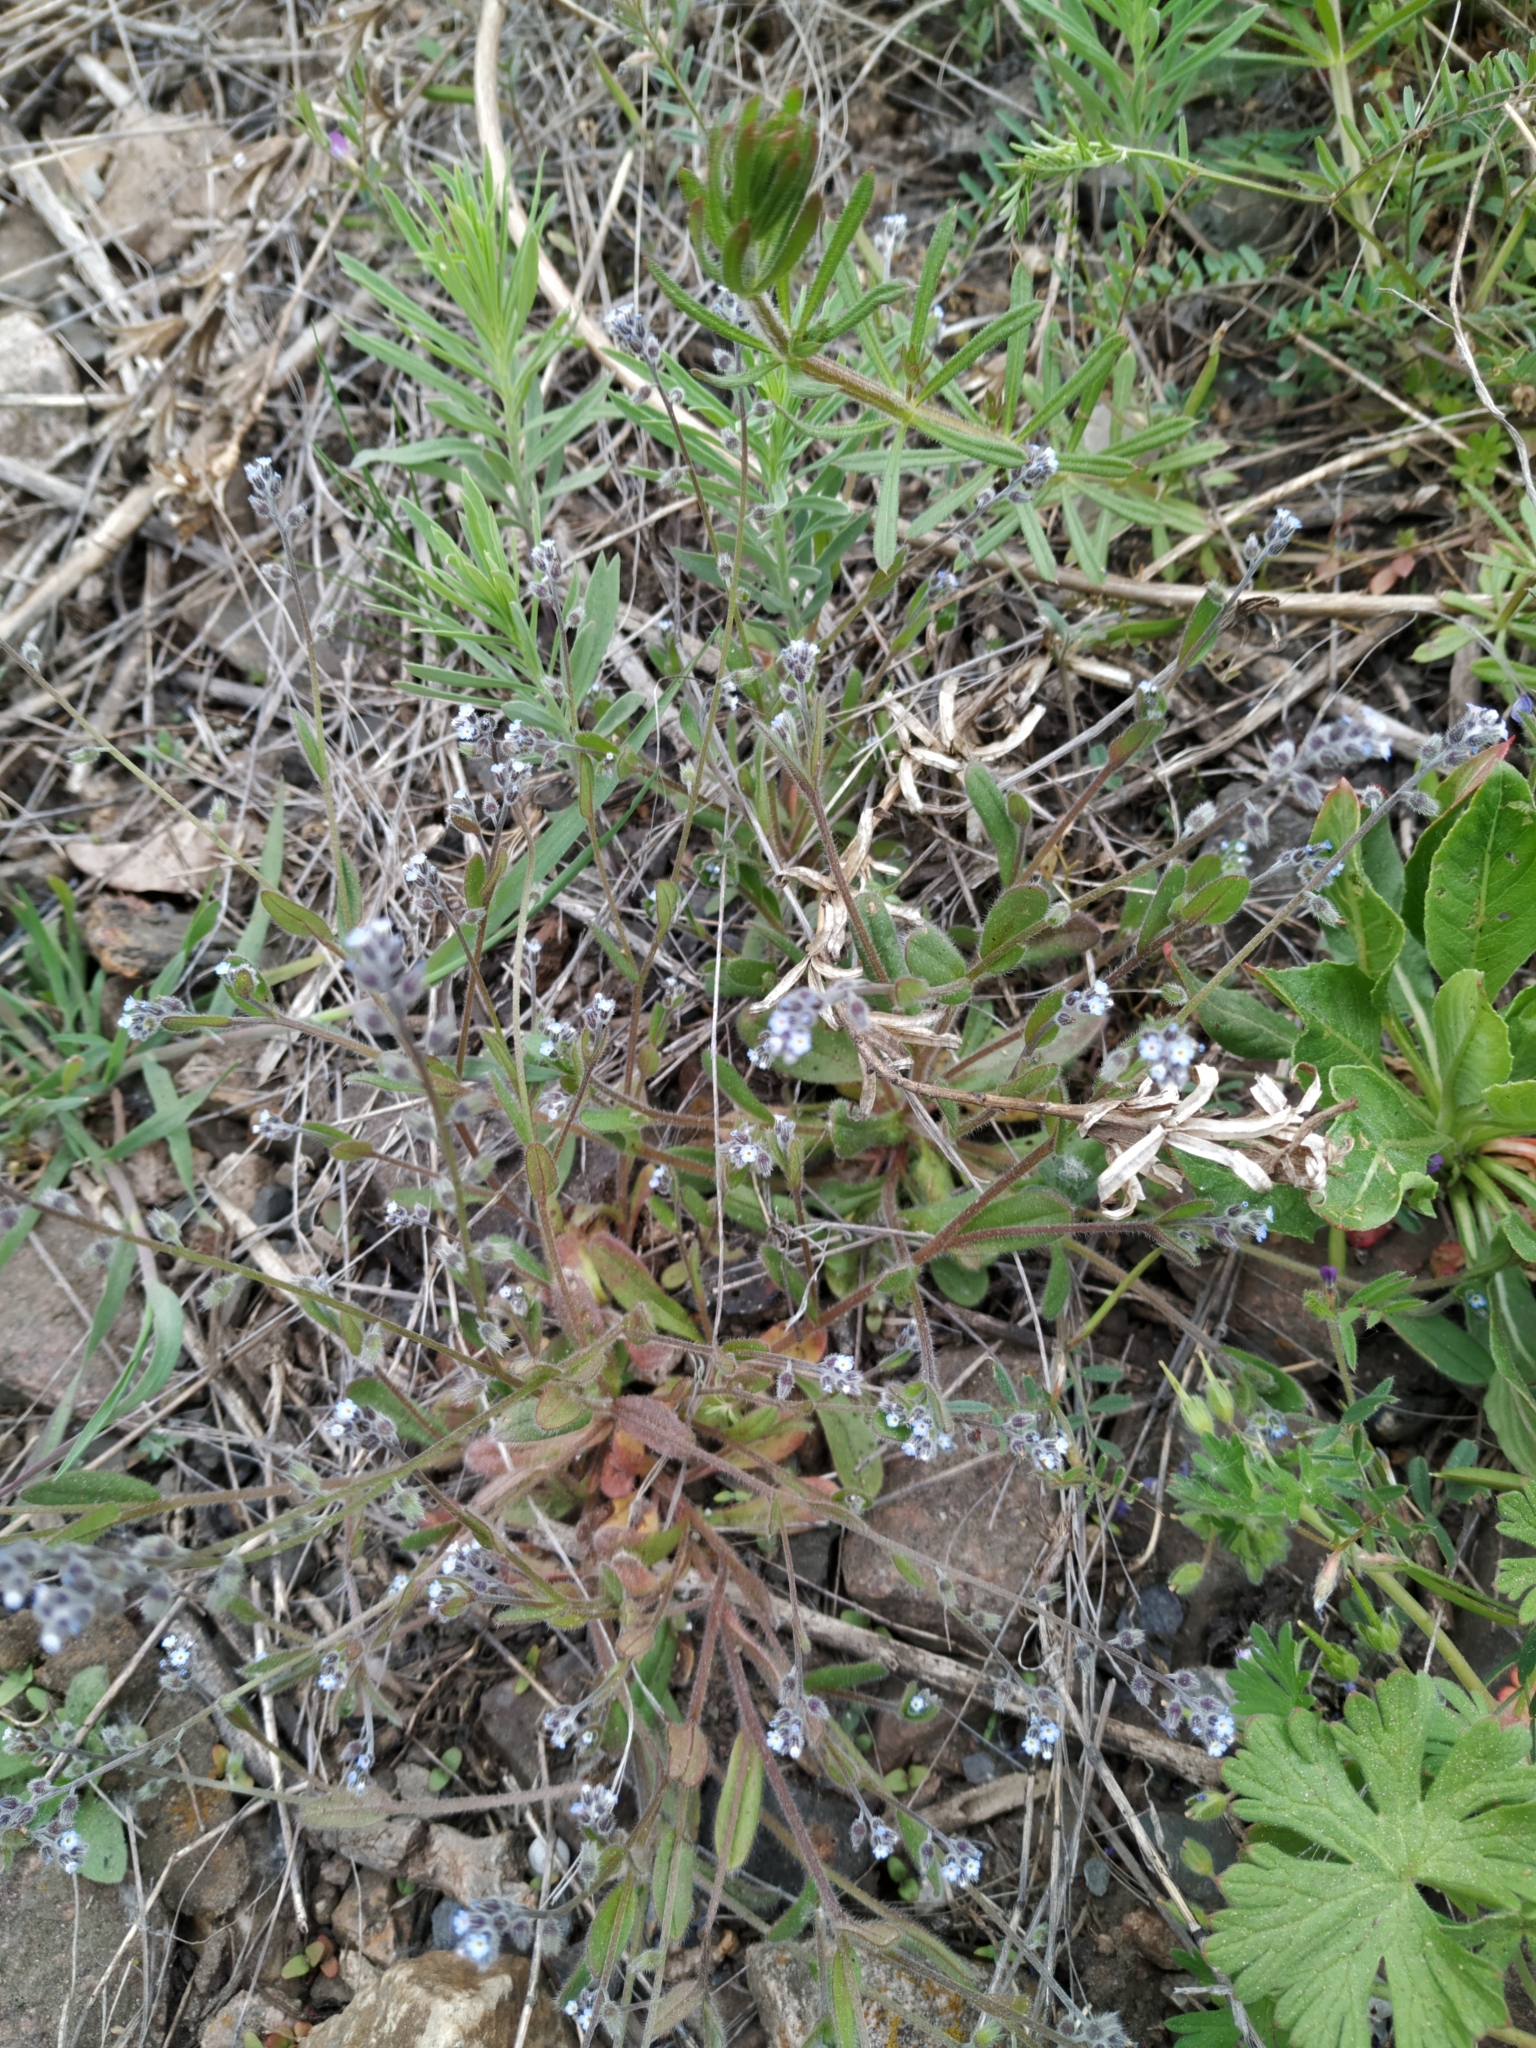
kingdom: Plantae
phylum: Tracheophyta
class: Magnoliopsida
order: Boraginales
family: Boraginaceae
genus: Myosotis
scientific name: Myosotis ramosissima
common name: Early forget-me-not
